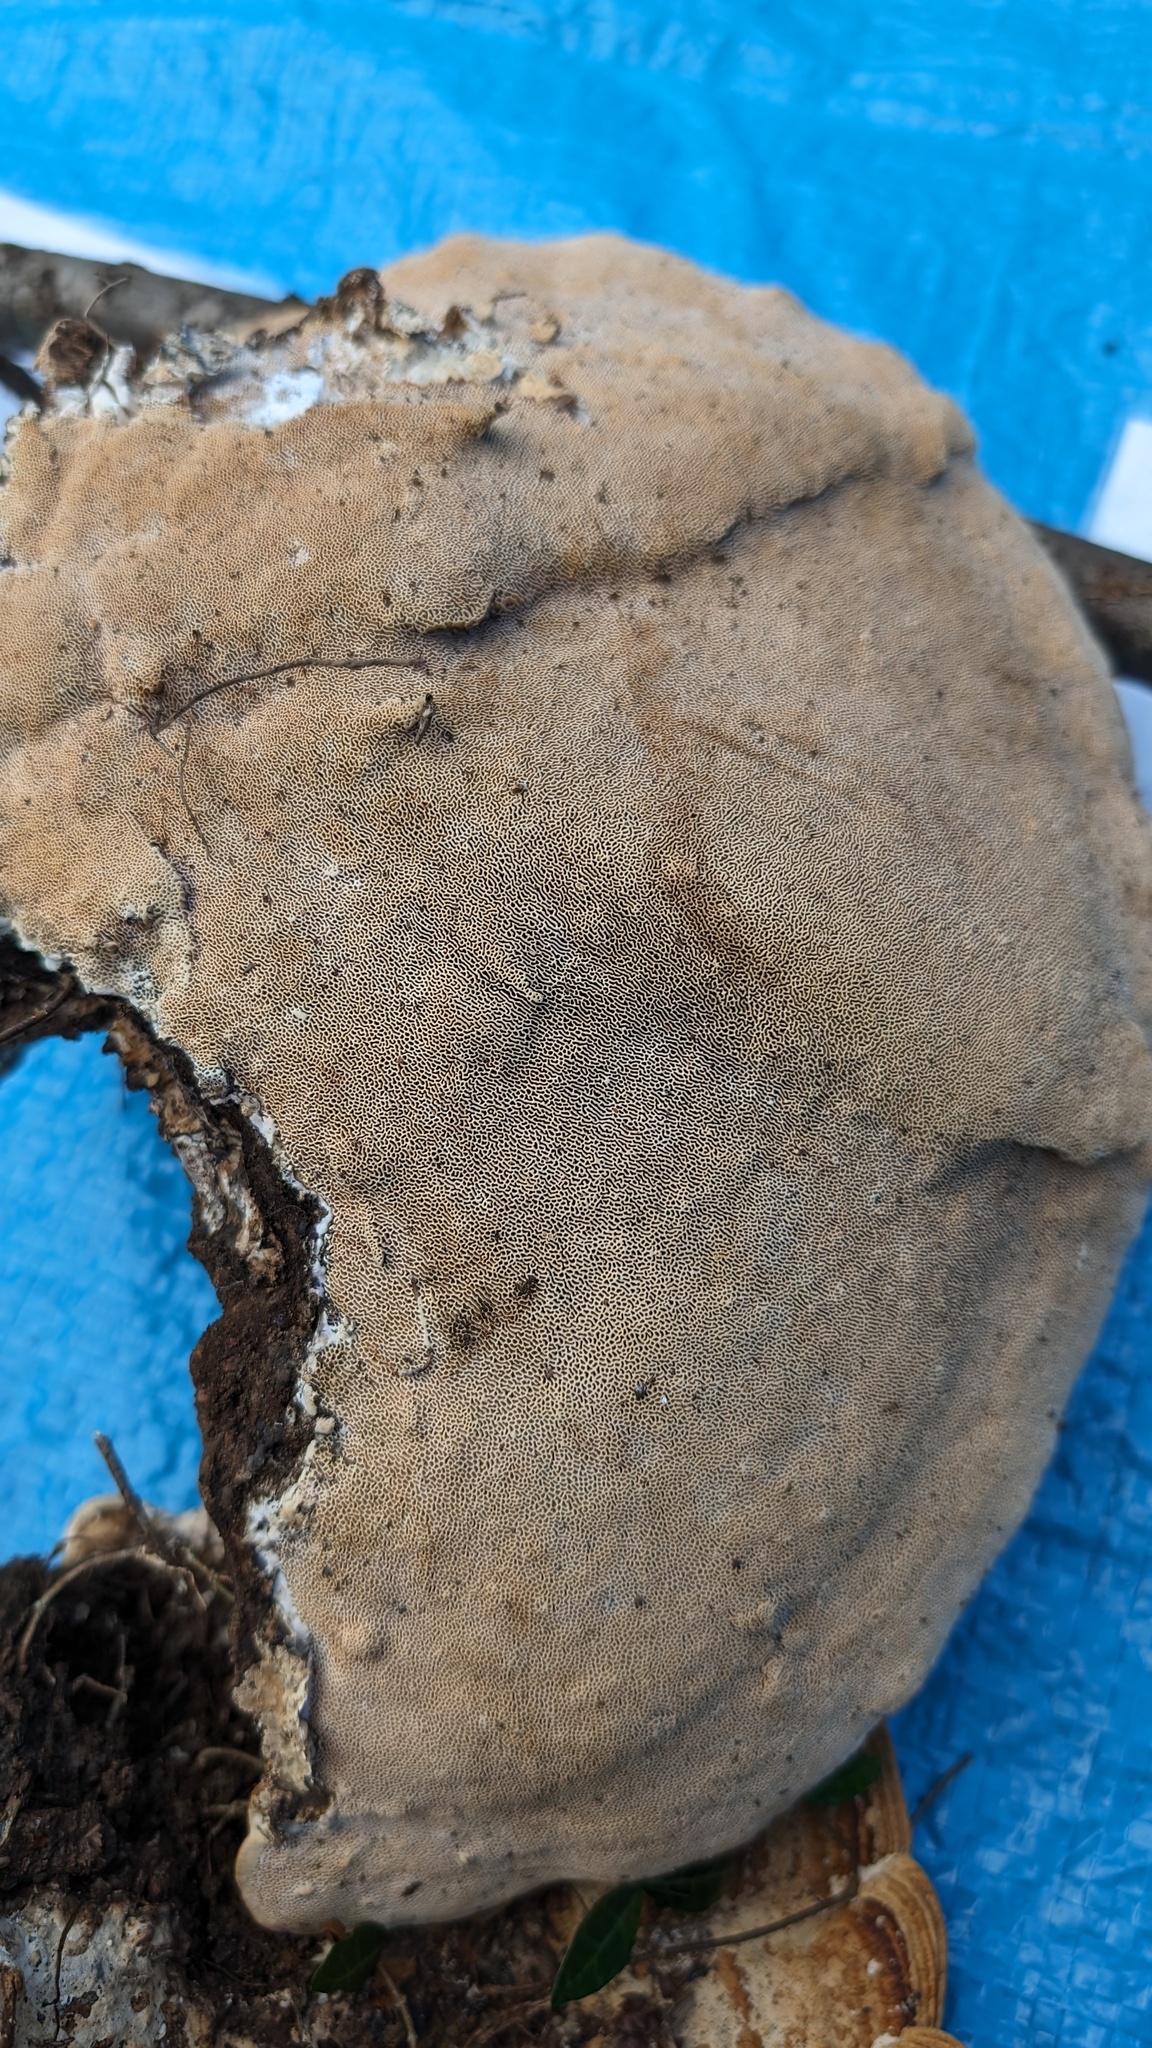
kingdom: Fungi
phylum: Basidiomycota
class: Agaricomycetes
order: Polyporales
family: Fomitopsidaceae
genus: Fomitopsis
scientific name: Fomitopsis
